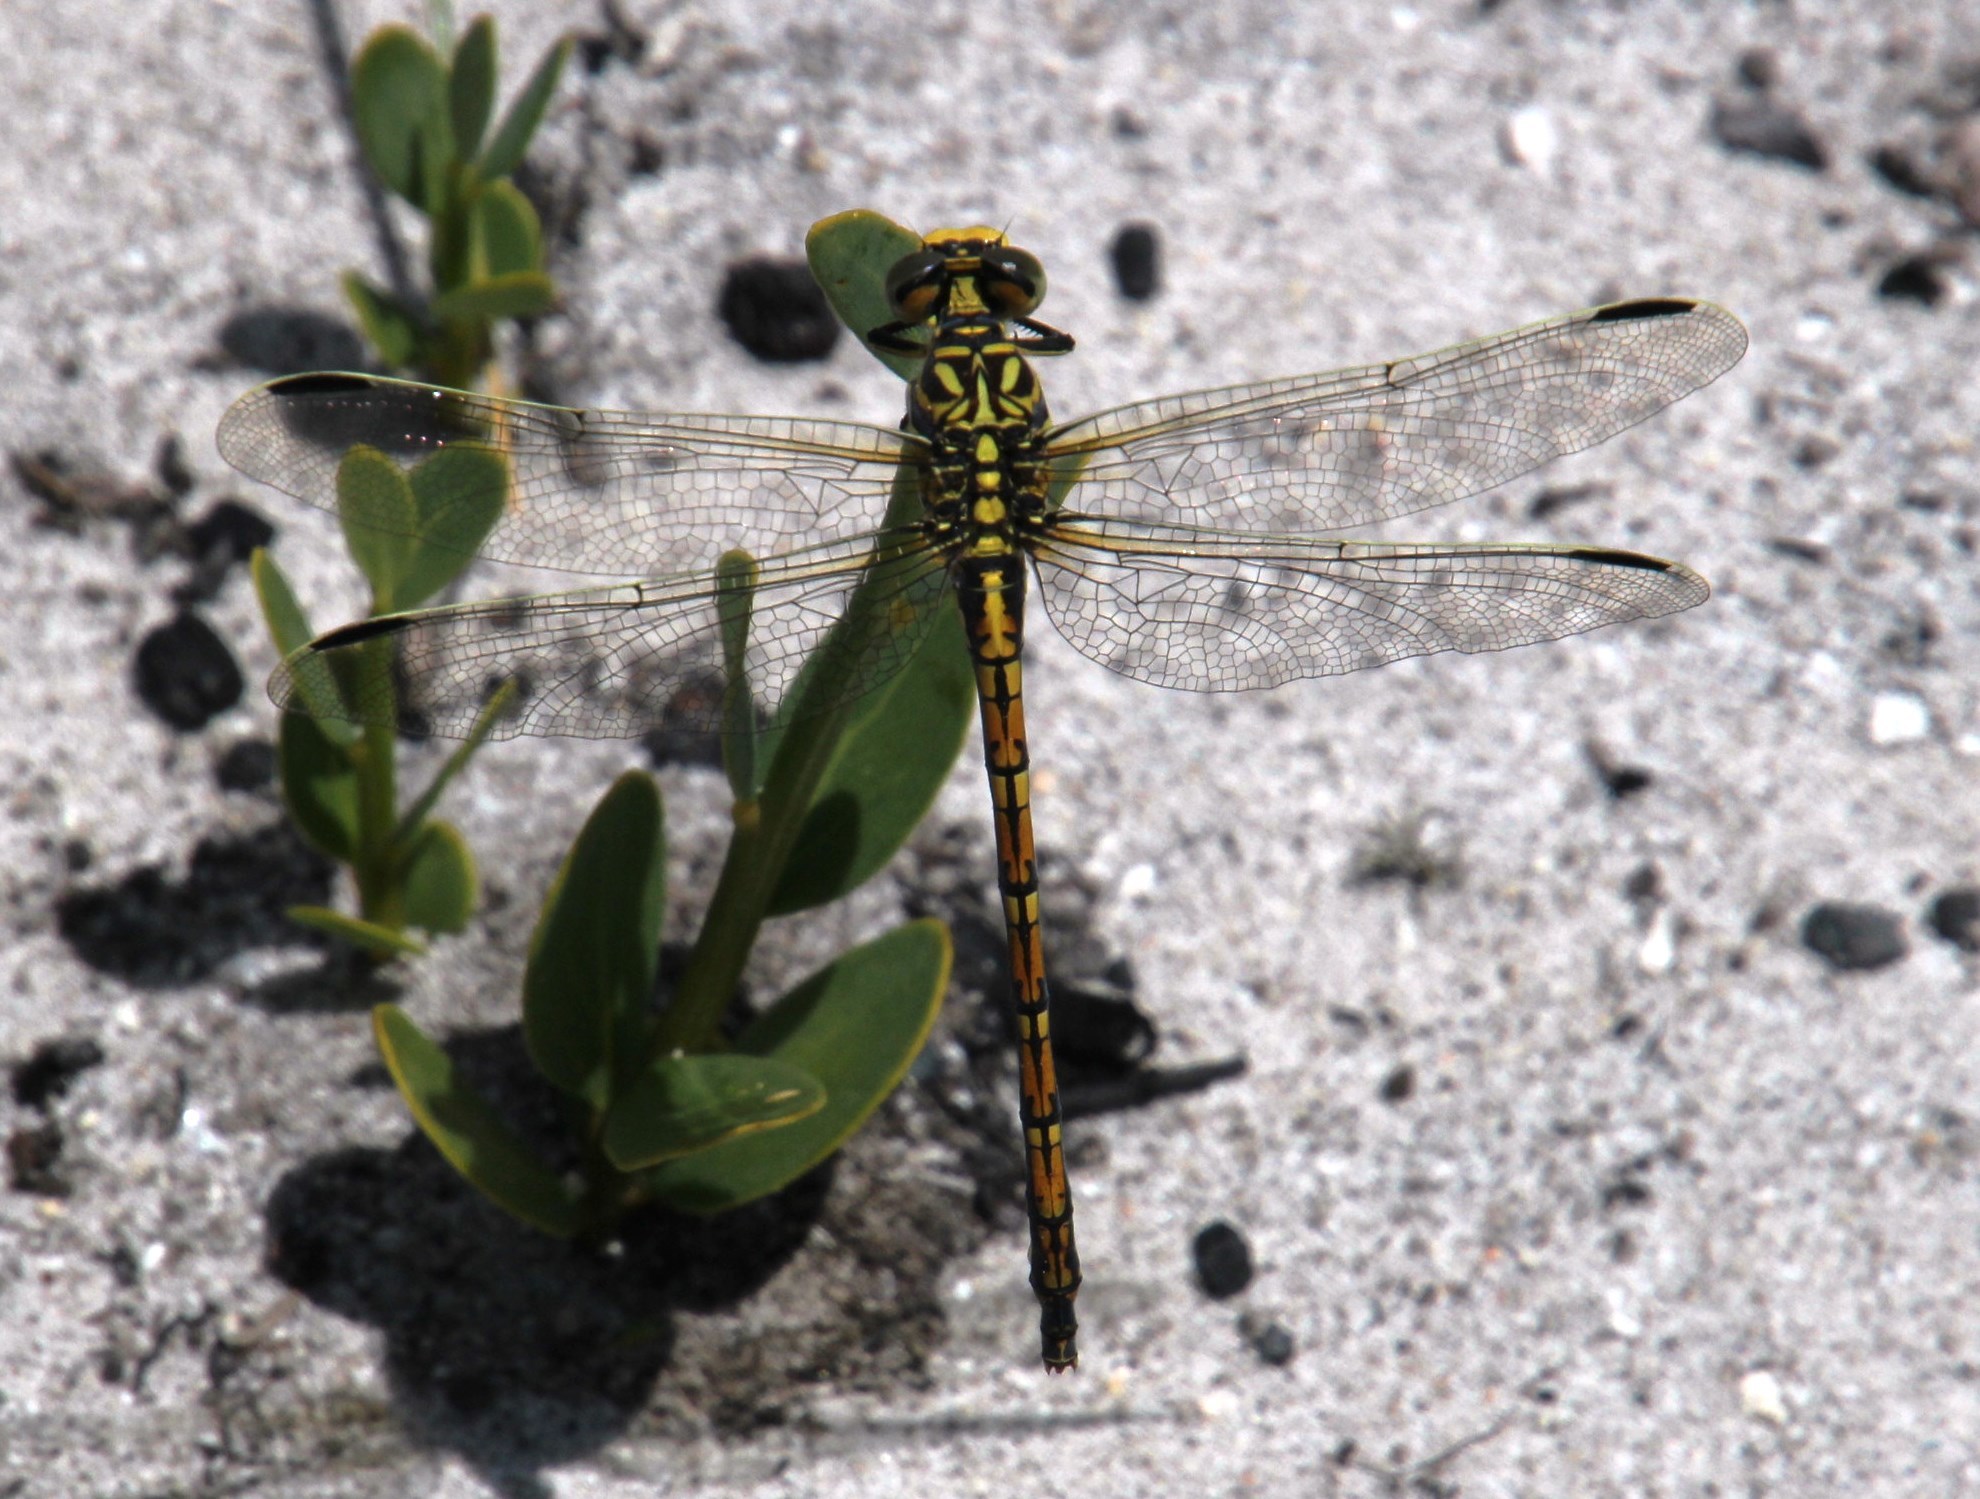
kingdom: Animalia
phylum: Arthropoda
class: Insecta
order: Odonata
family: Gomphidae
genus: Ceratogomphus
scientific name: Ceratogomphus pictus
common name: Common thorntail
